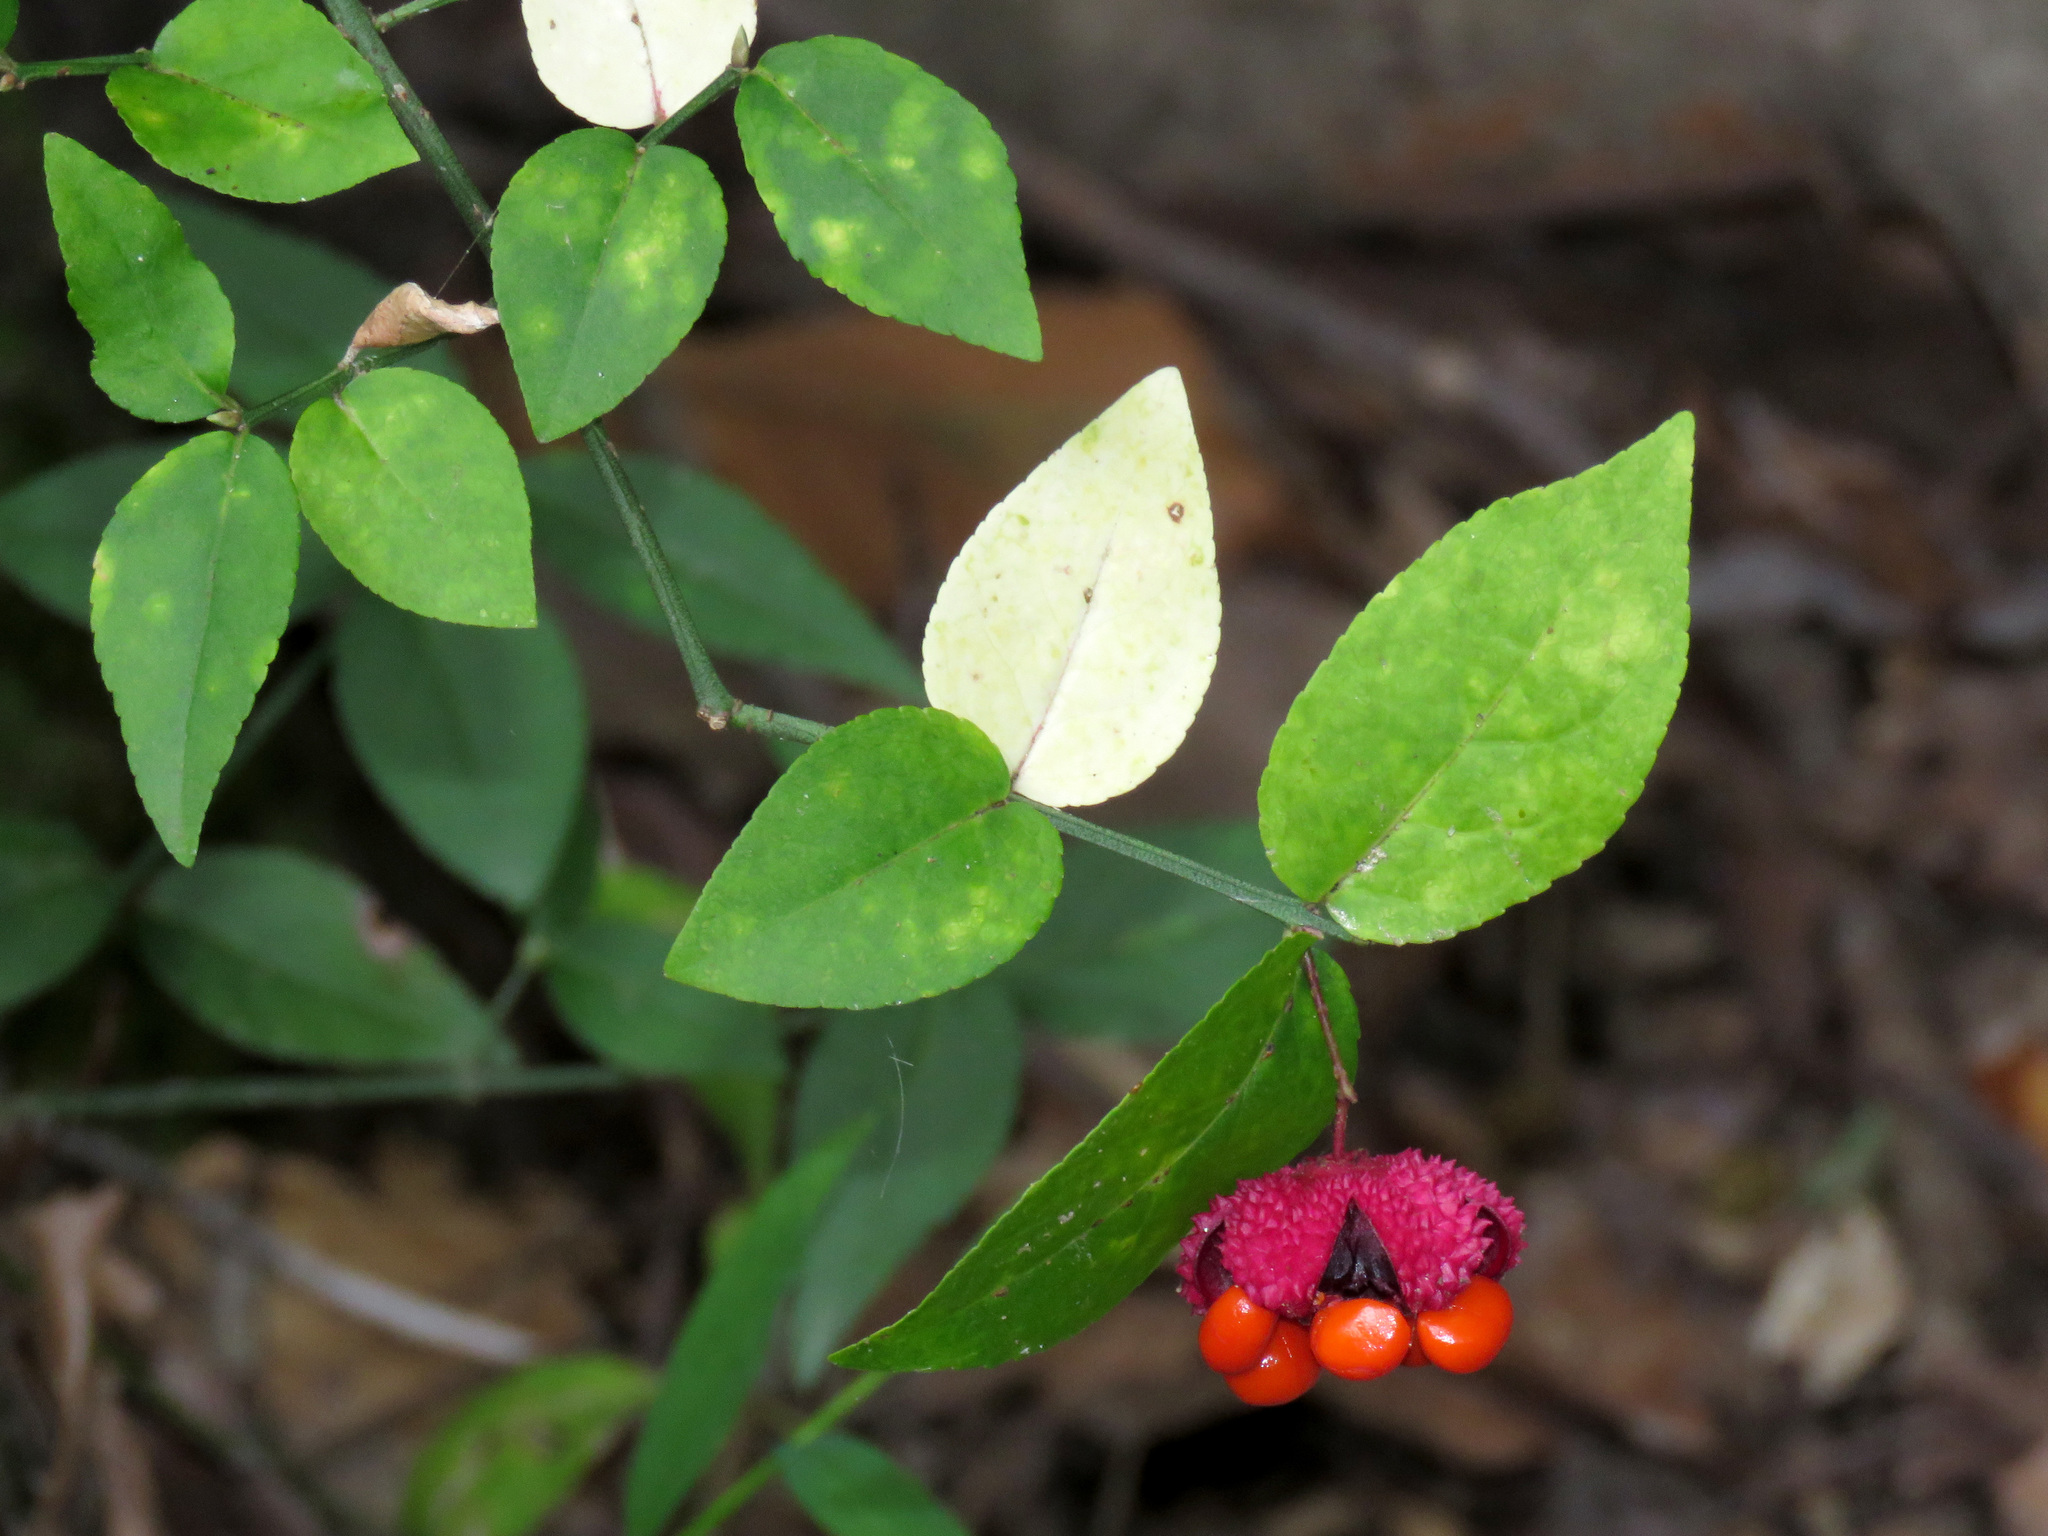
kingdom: Plantae
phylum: Tracheophyta
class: Magnoliopsida
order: Celastrales
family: Celastraceae
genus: Euonymus
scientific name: Euonymus americanus
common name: Bursting-heart
